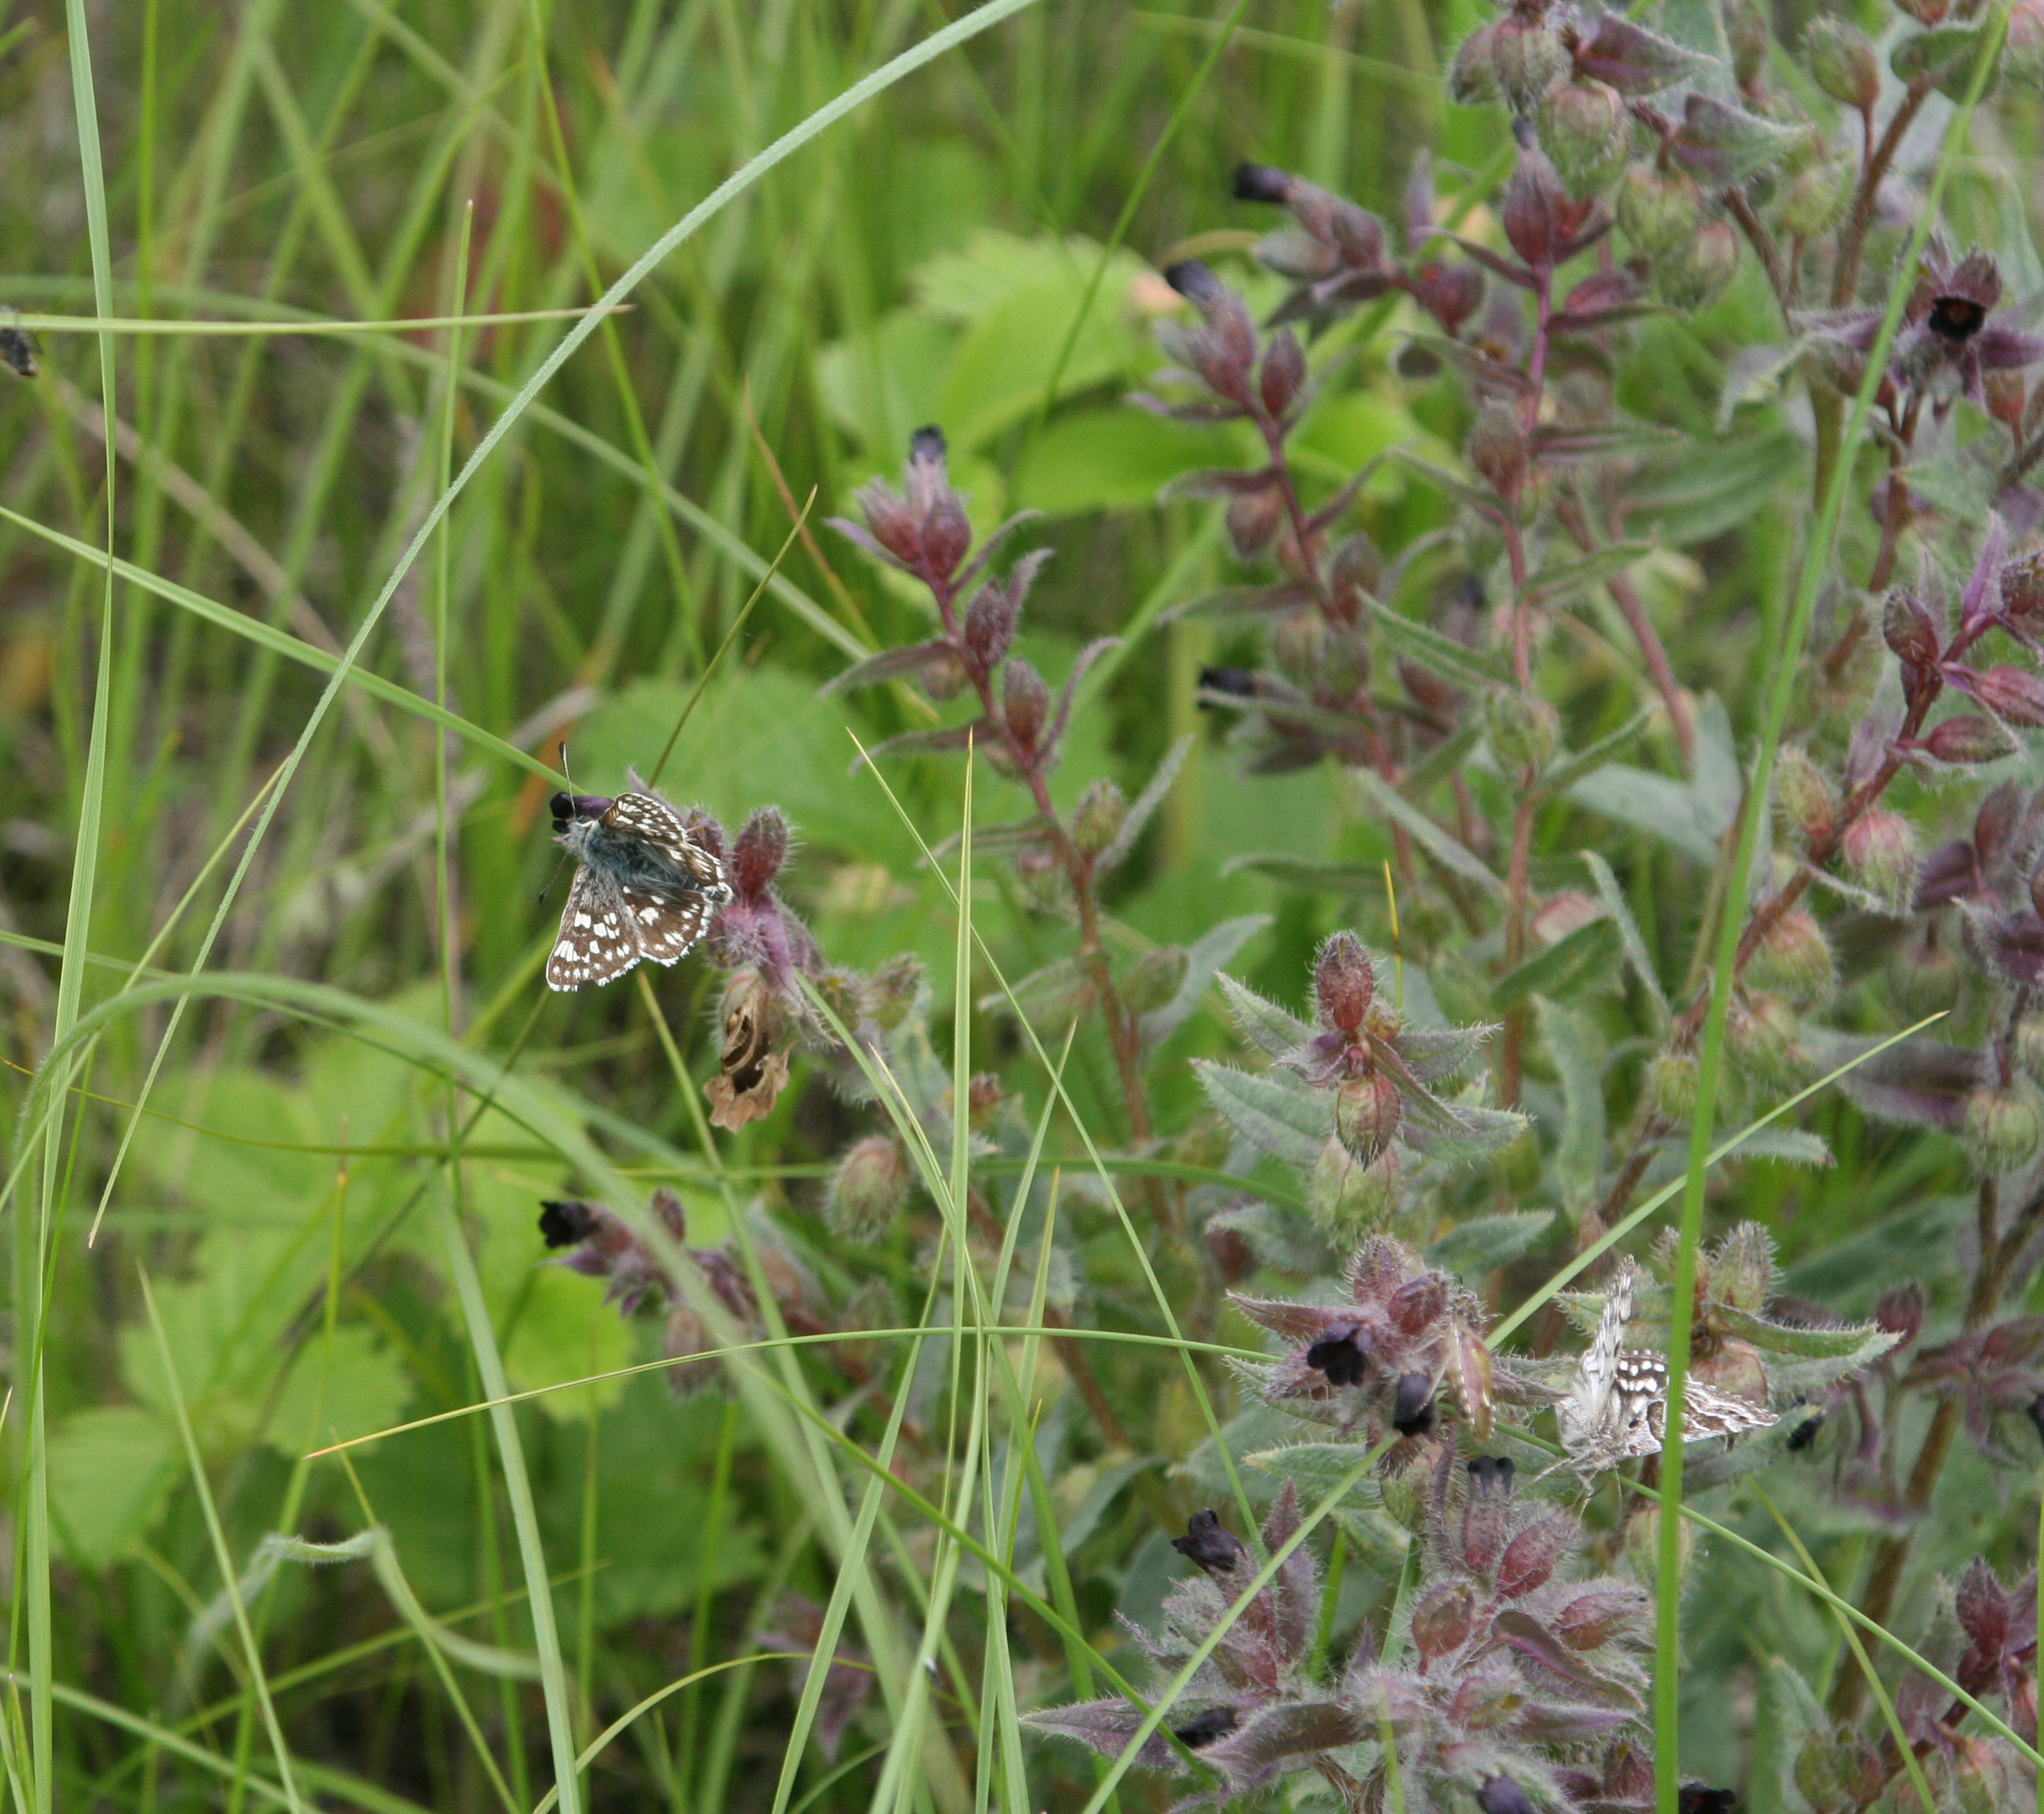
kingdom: Plantae
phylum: Tracheophyta
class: Magnoliopsida
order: Boraginales
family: Boraginaceae
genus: Nonea
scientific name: Nonea pulla
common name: Brown nonea
